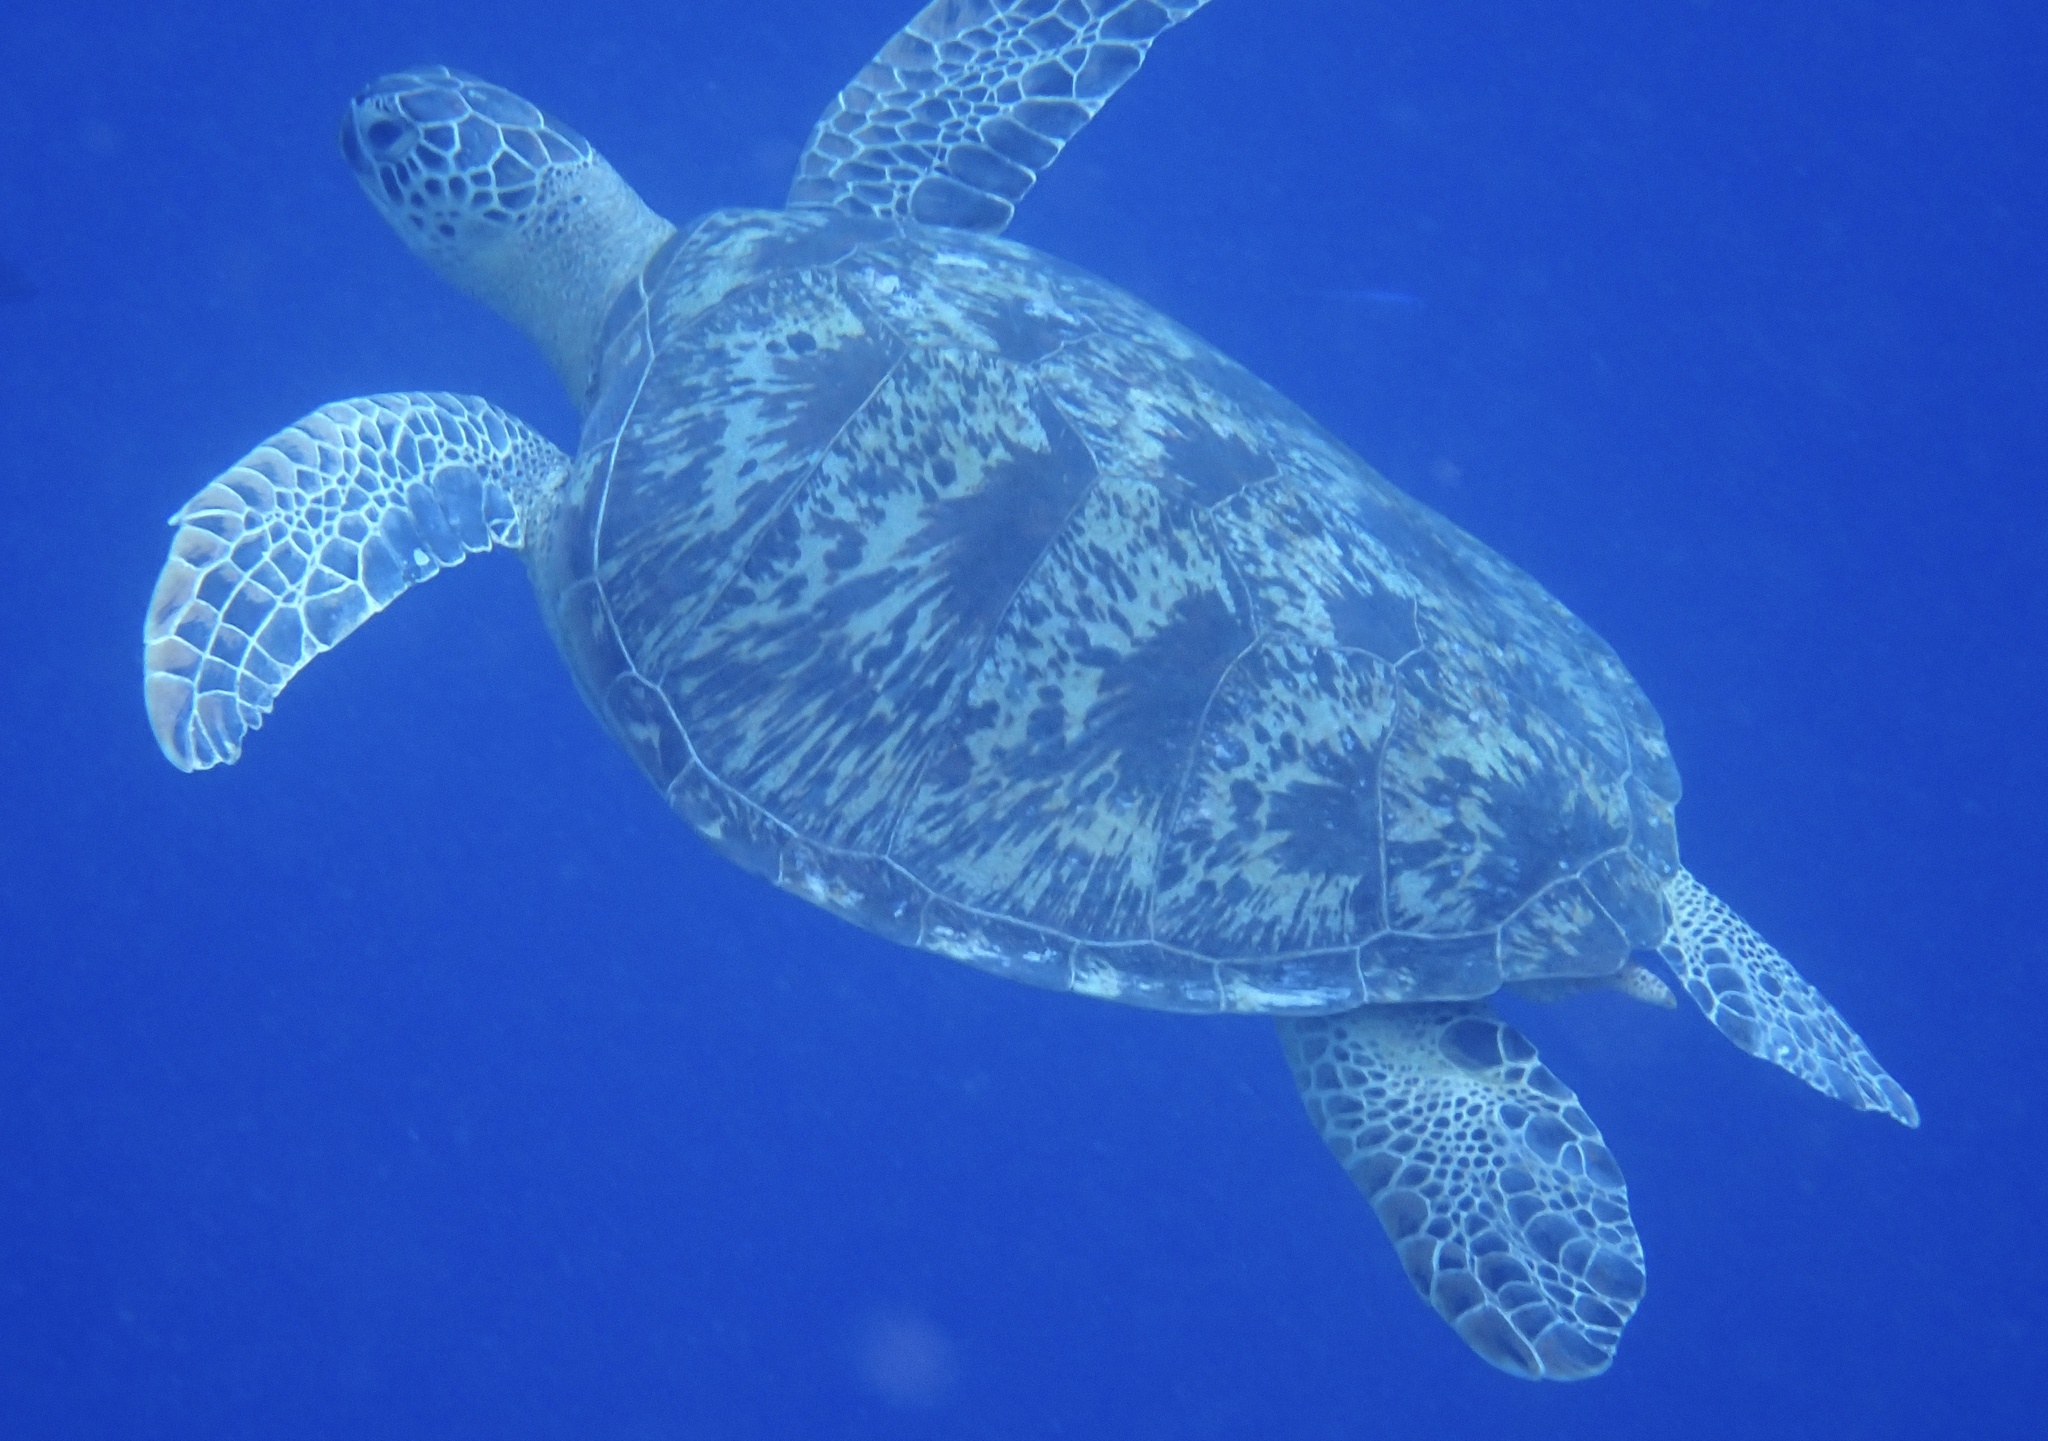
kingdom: Animalia
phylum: Chordata
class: Testudines
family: Cheloniidae
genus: Chelonia
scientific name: Chelonia mydas
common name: Green turtle
